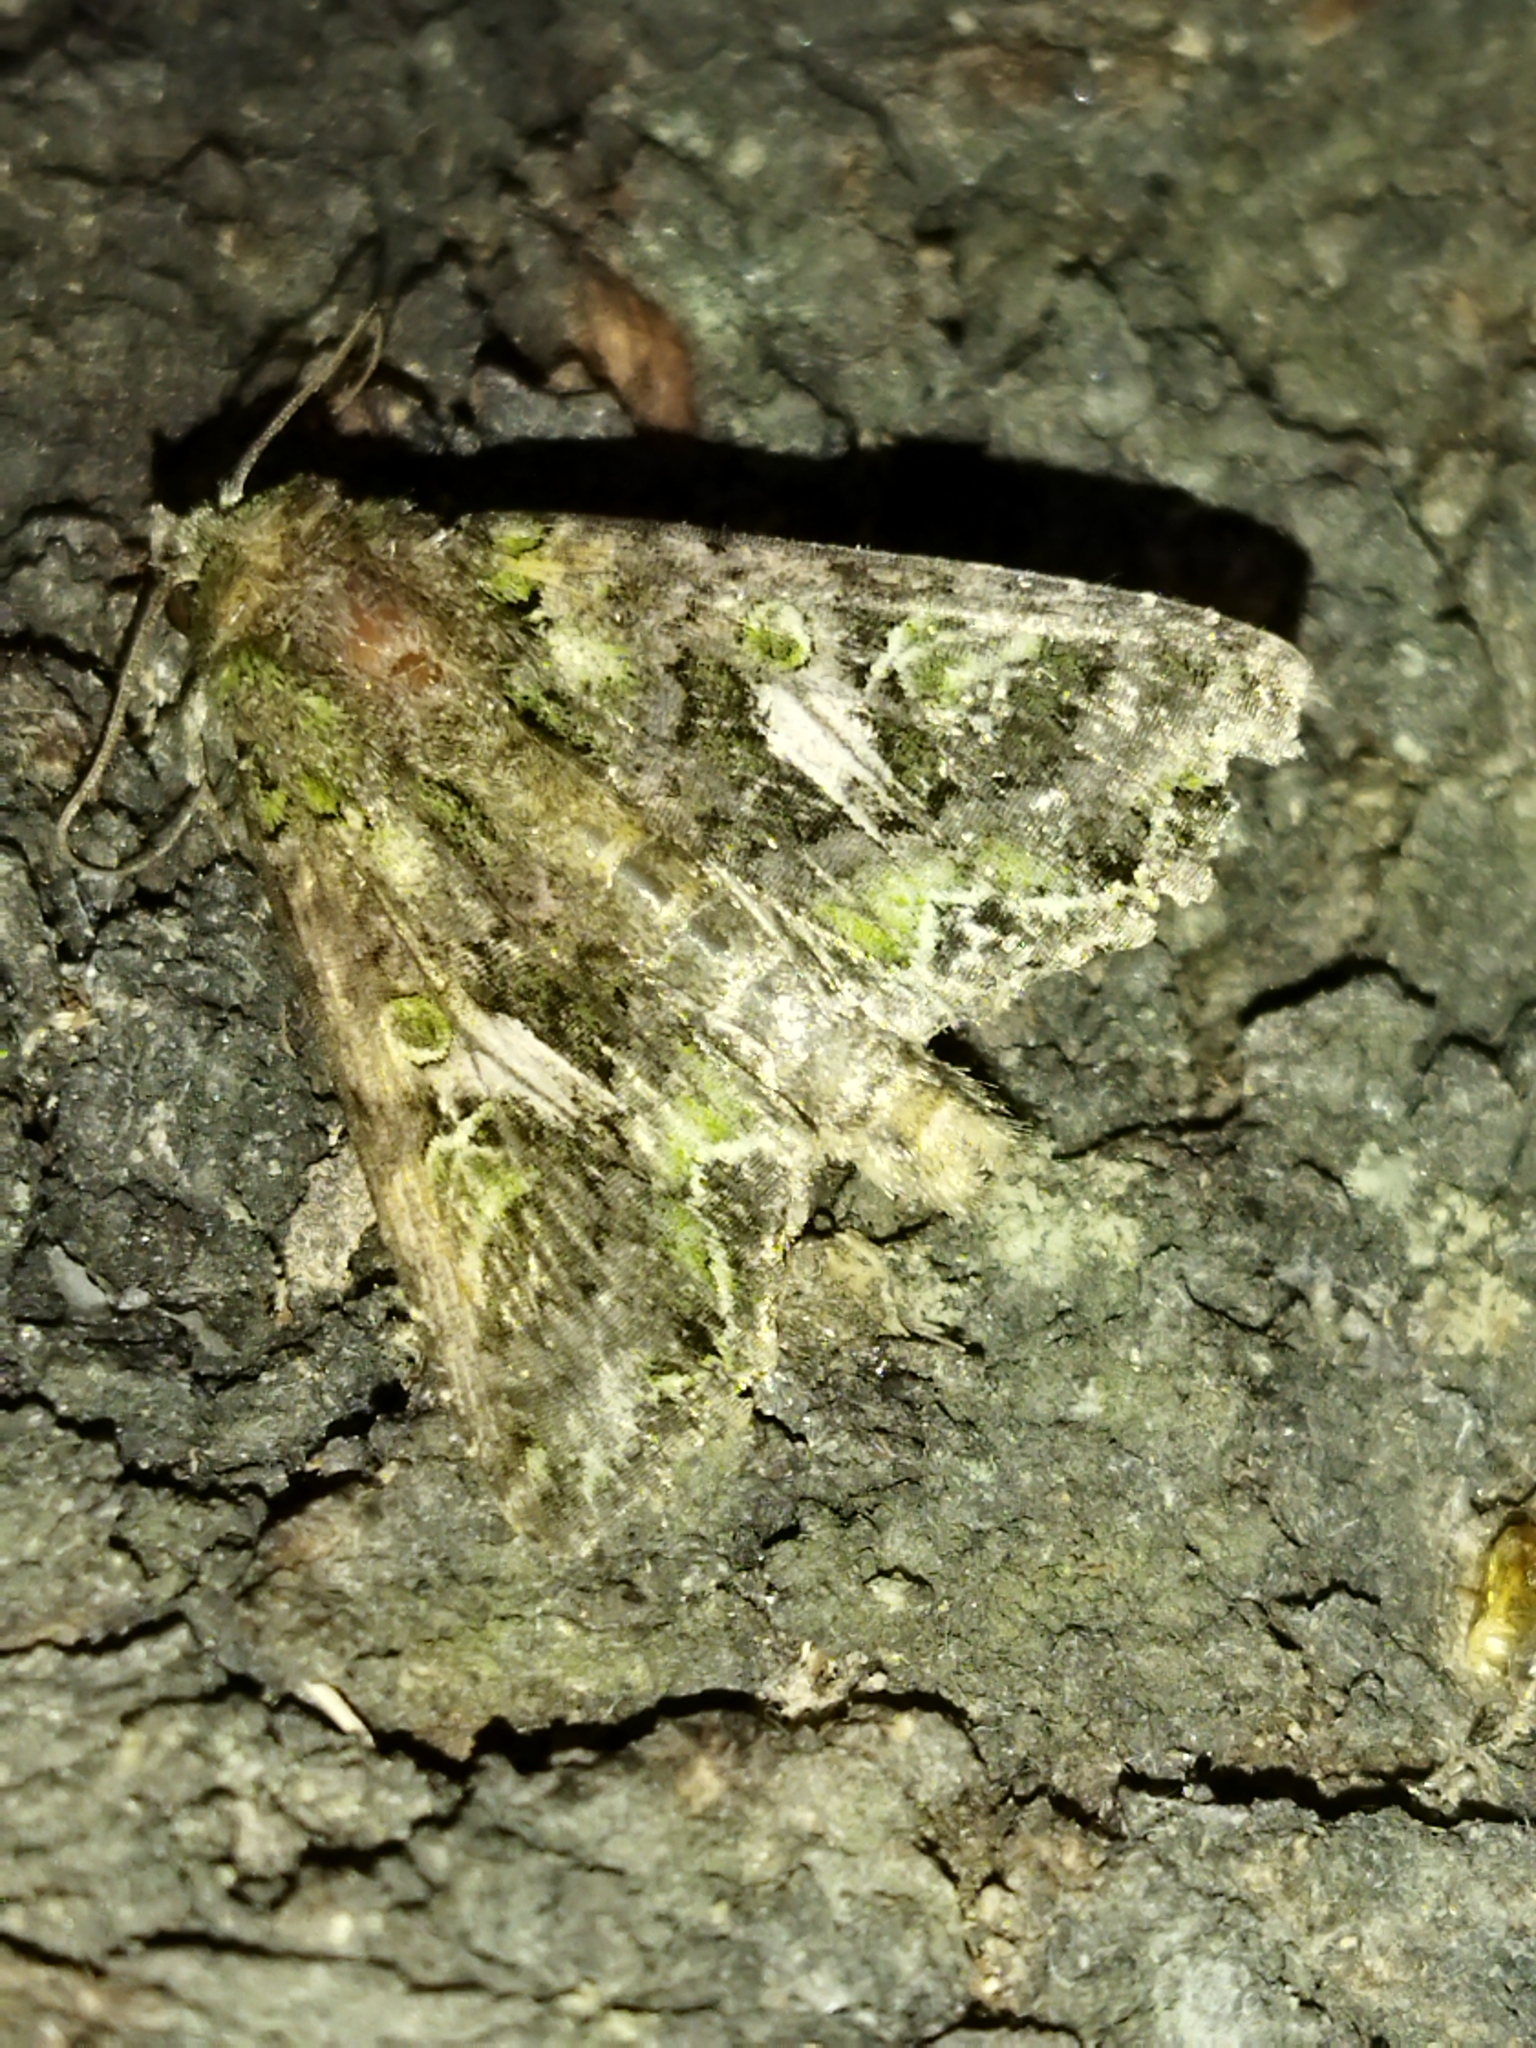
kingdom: Animalia
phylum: Arthropoda
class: Insecta
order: Lepidoptera
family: Noctuidae
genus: Trachea
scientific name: Trachea atriplicis
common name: Orache moth
